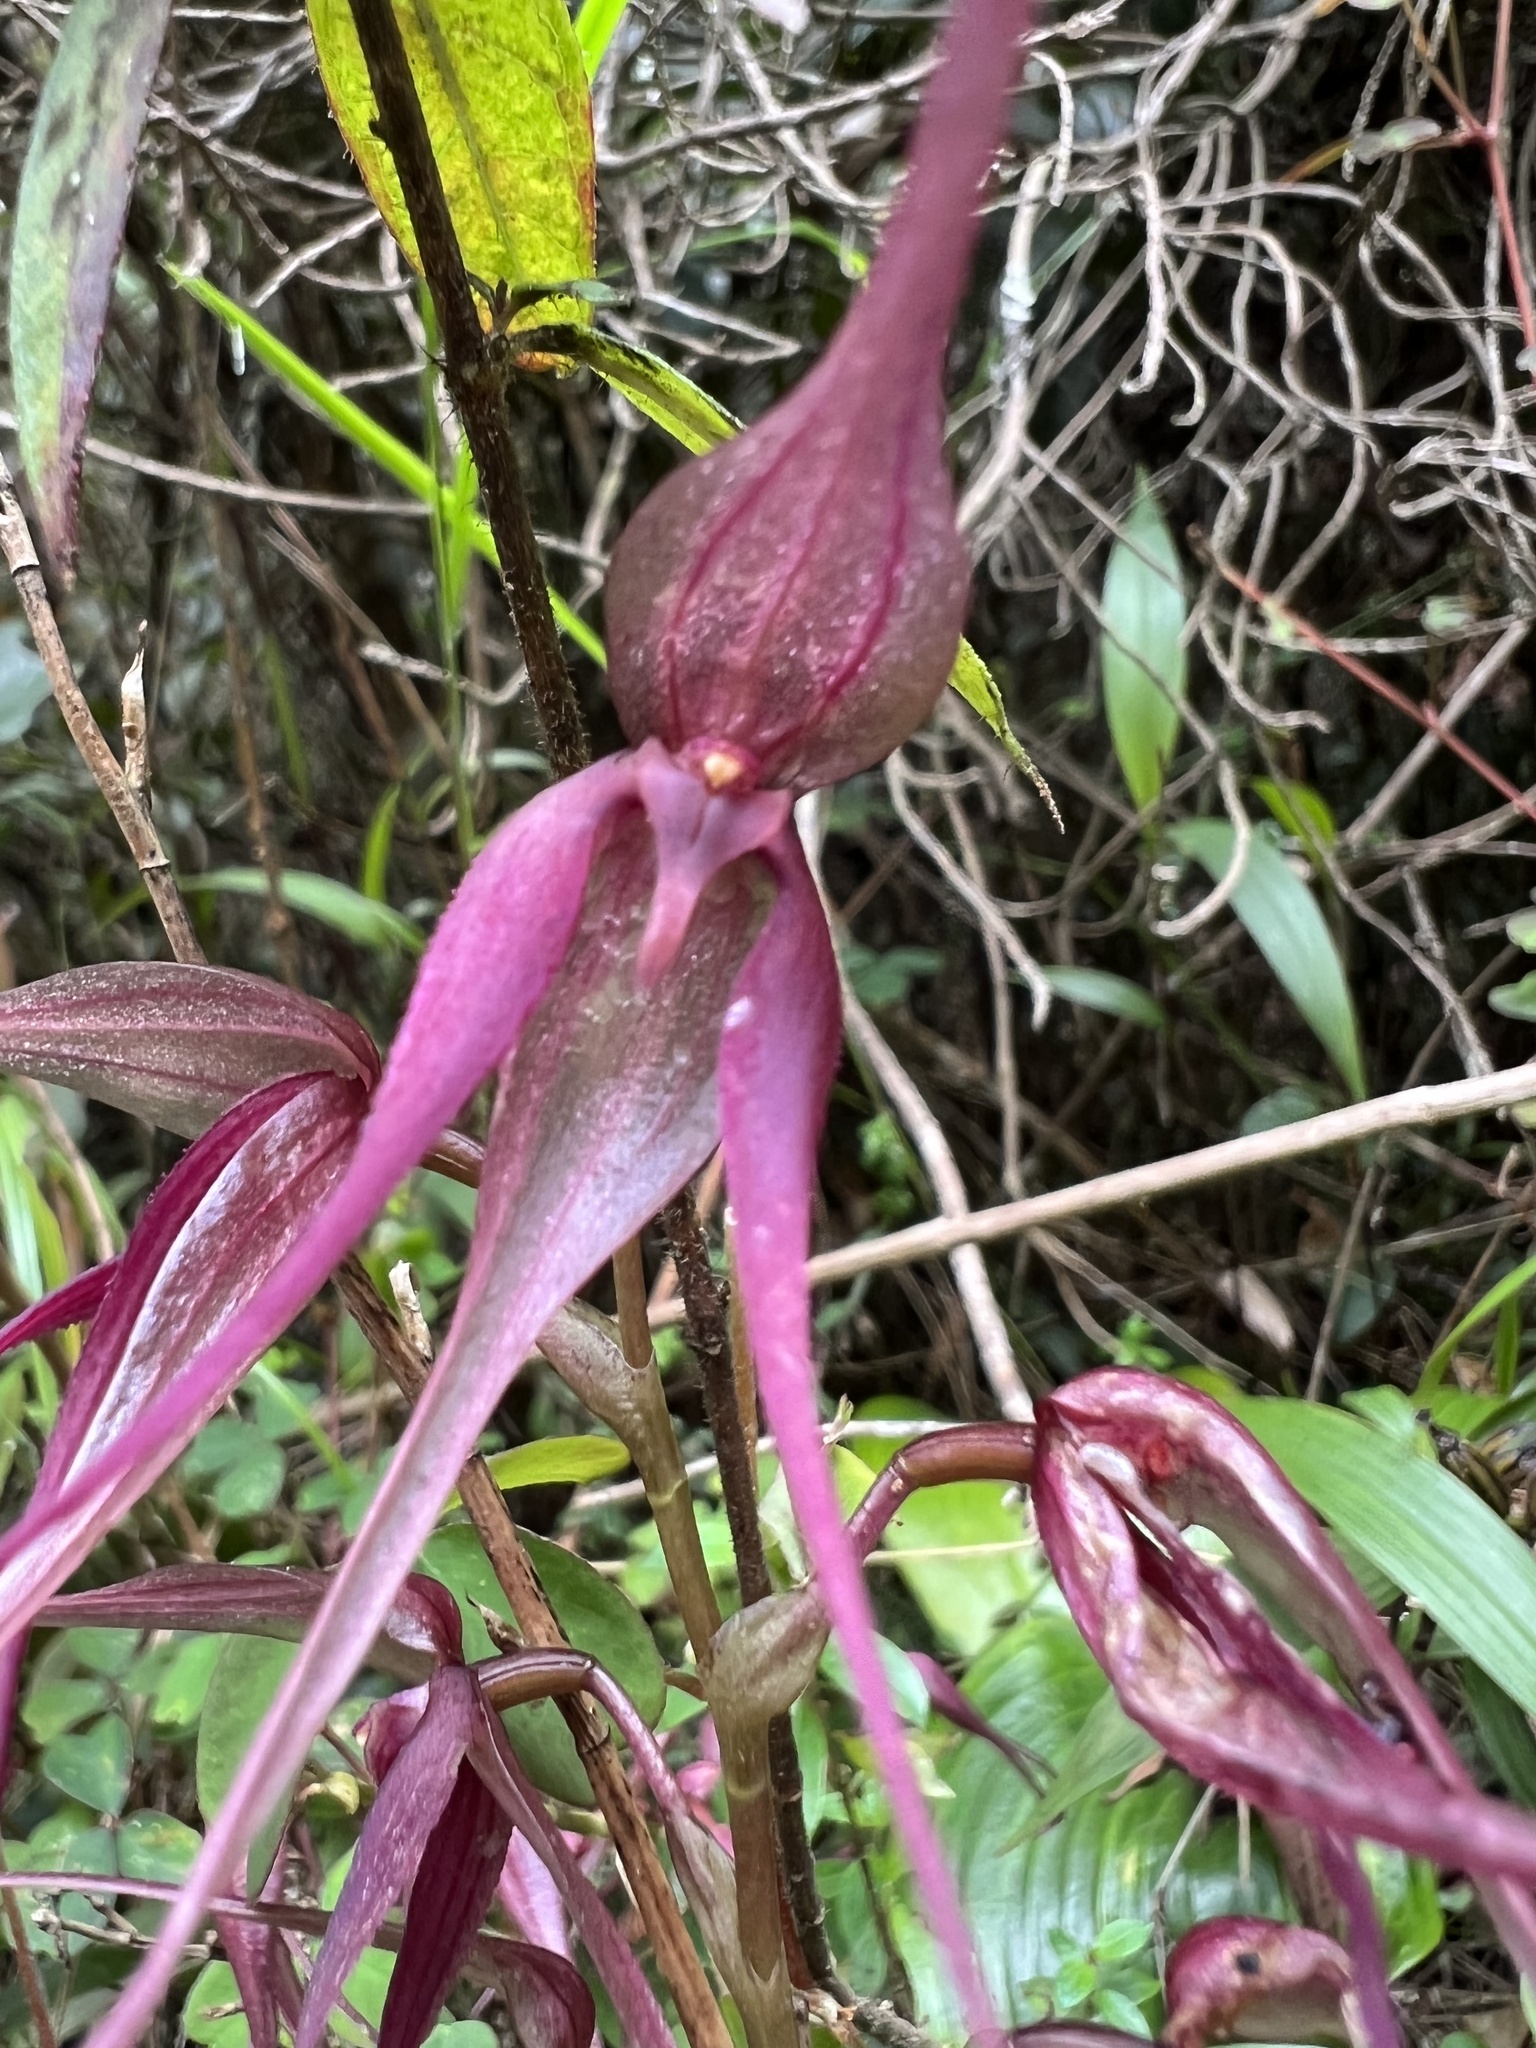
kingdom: Plantae
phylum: Tracheophyta
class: Liliopsida
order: Asparagales
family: Orchidaceae
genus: Pleurothallis
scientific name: Pleurothallis phalangifera
